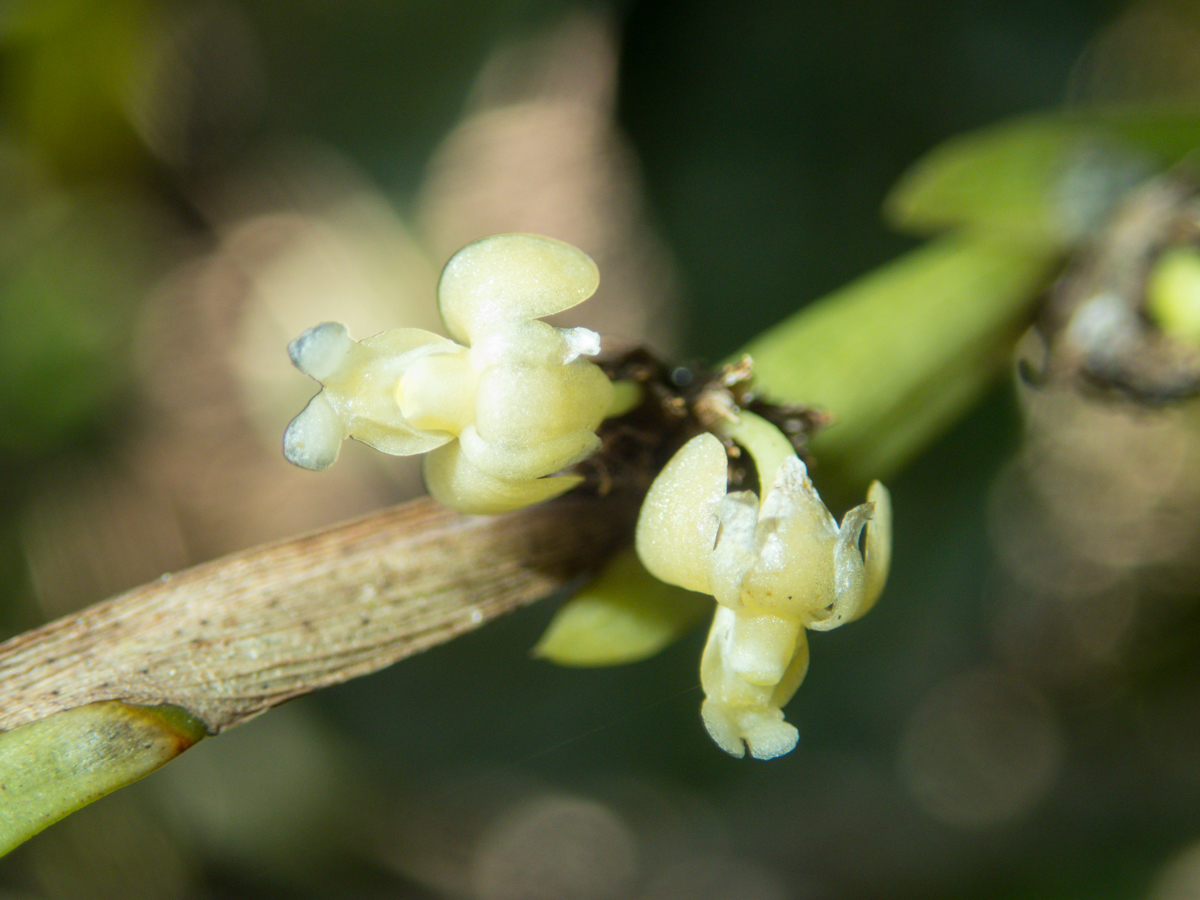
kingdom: Plantae
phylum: Tracheophyta
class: Liliopsida
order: Asparagales
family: Orchidaceae
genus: Dendrobium
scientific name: Dendrobium aloifolium
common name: Aloe-like dendrobium
